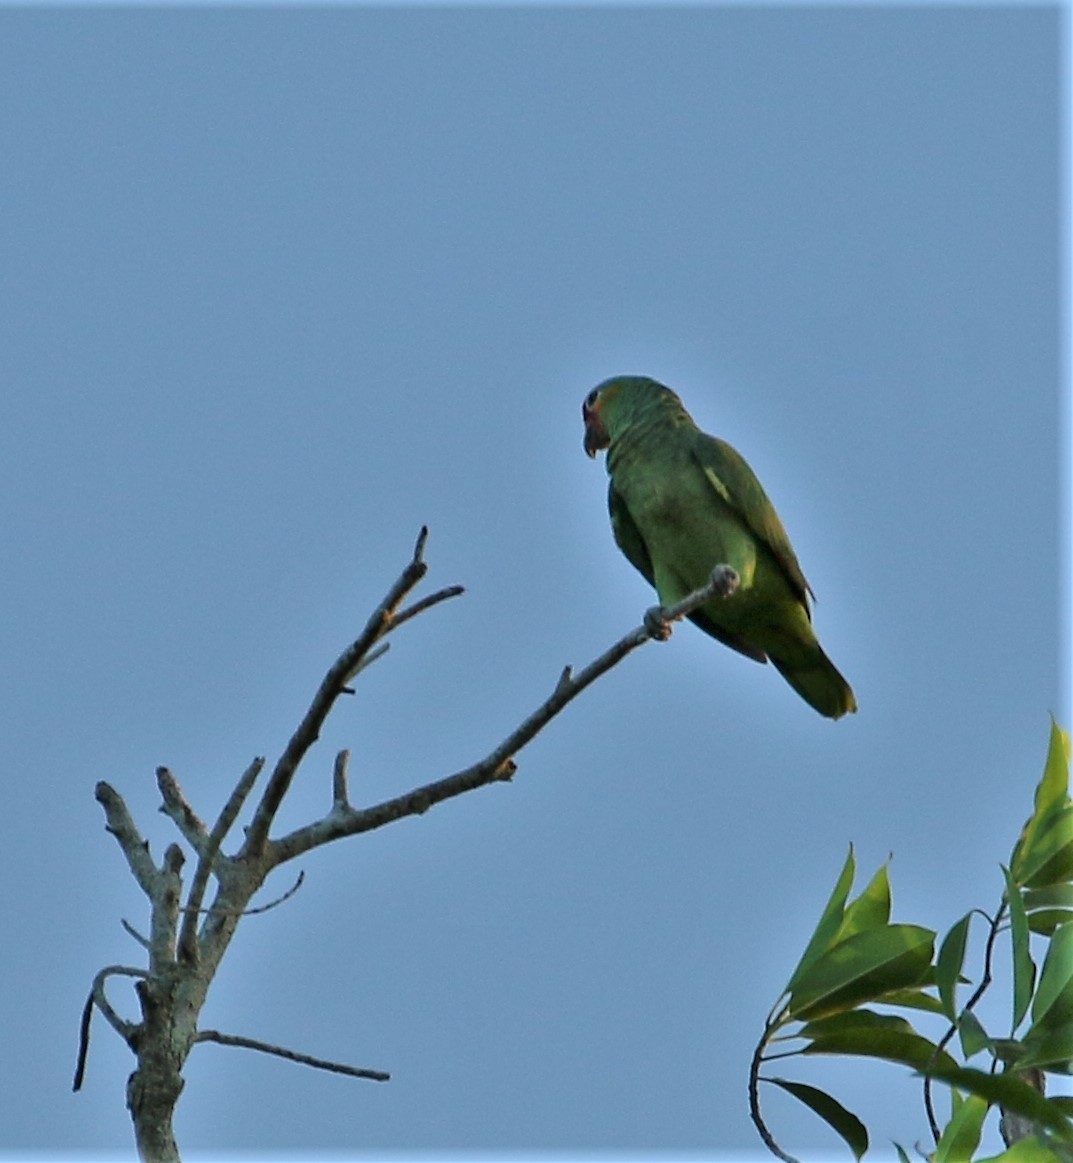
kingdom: Animalia
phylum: Chordata
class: Aves
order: Psittaciformes
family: Psittacidae
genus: Amazona
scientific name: Amazona autumnalis
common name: Red-lored amazon
